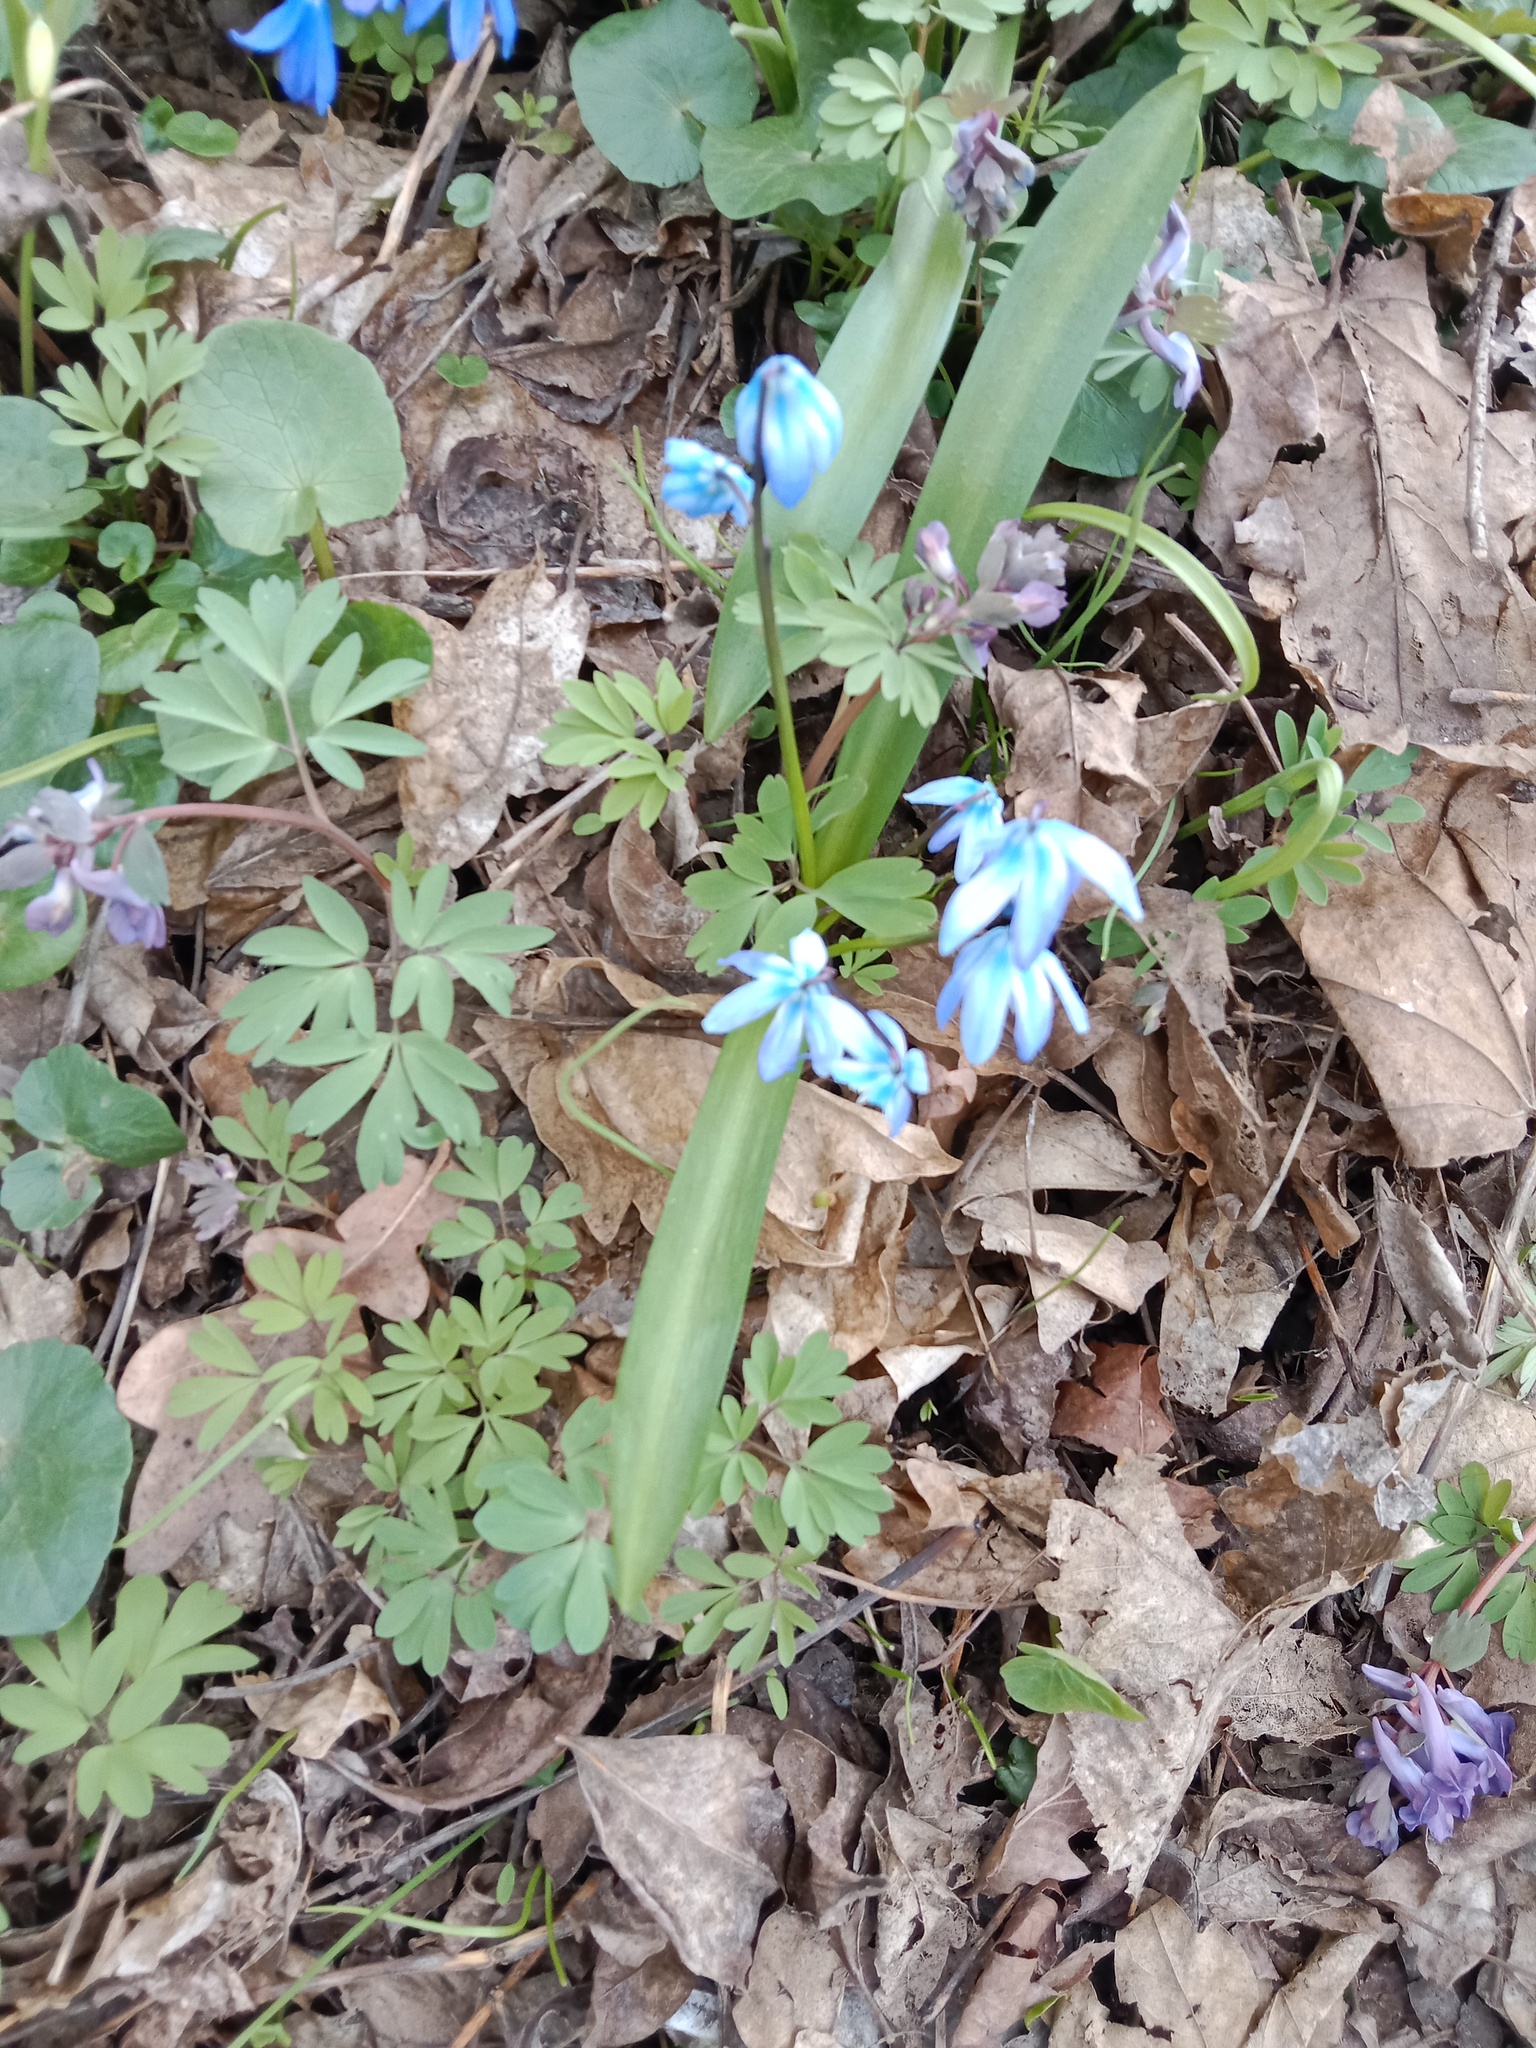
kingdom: Plantae
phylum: Tracheophyta
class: Liliopsida
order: Asparagales
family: Asparagaceae
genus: Scilla
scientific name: Scilla siberica
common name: Siberian squill
